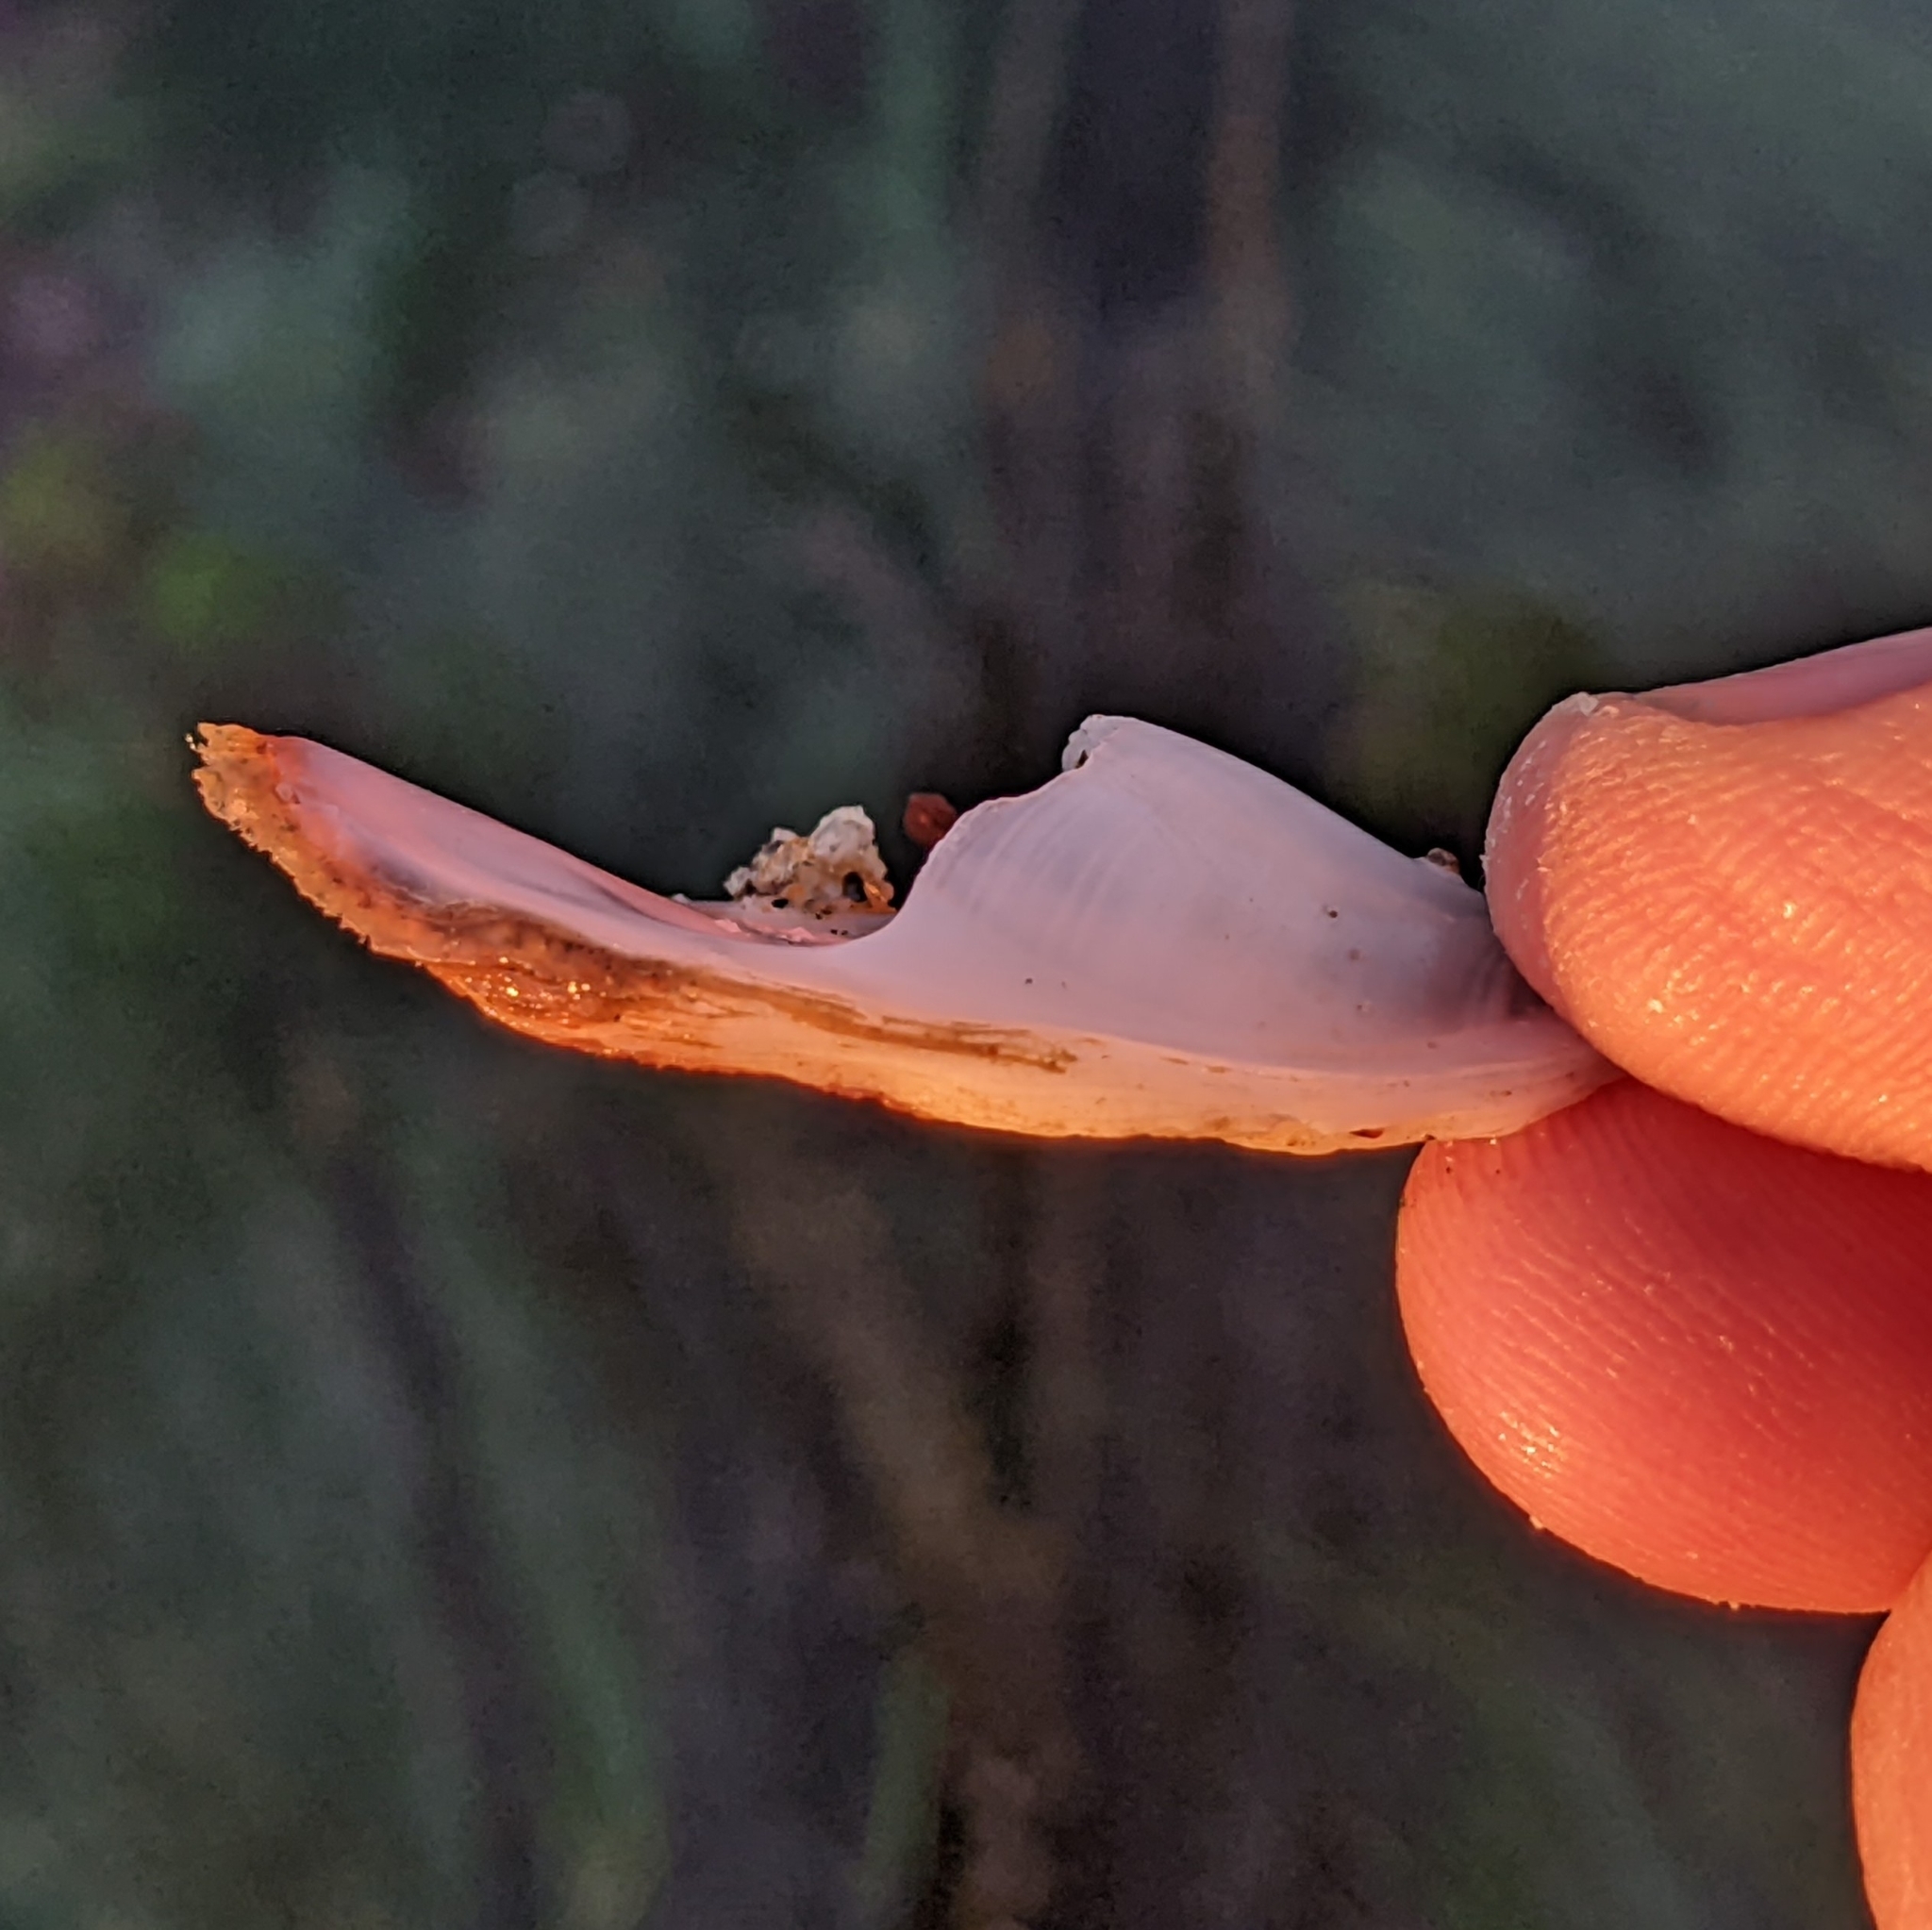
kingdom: Animalia
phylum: Mollusca
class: Gastropoda
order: Littorinimorpha
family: Calyptraeidae
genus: Crepidula
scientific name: Crepidula nummaria
